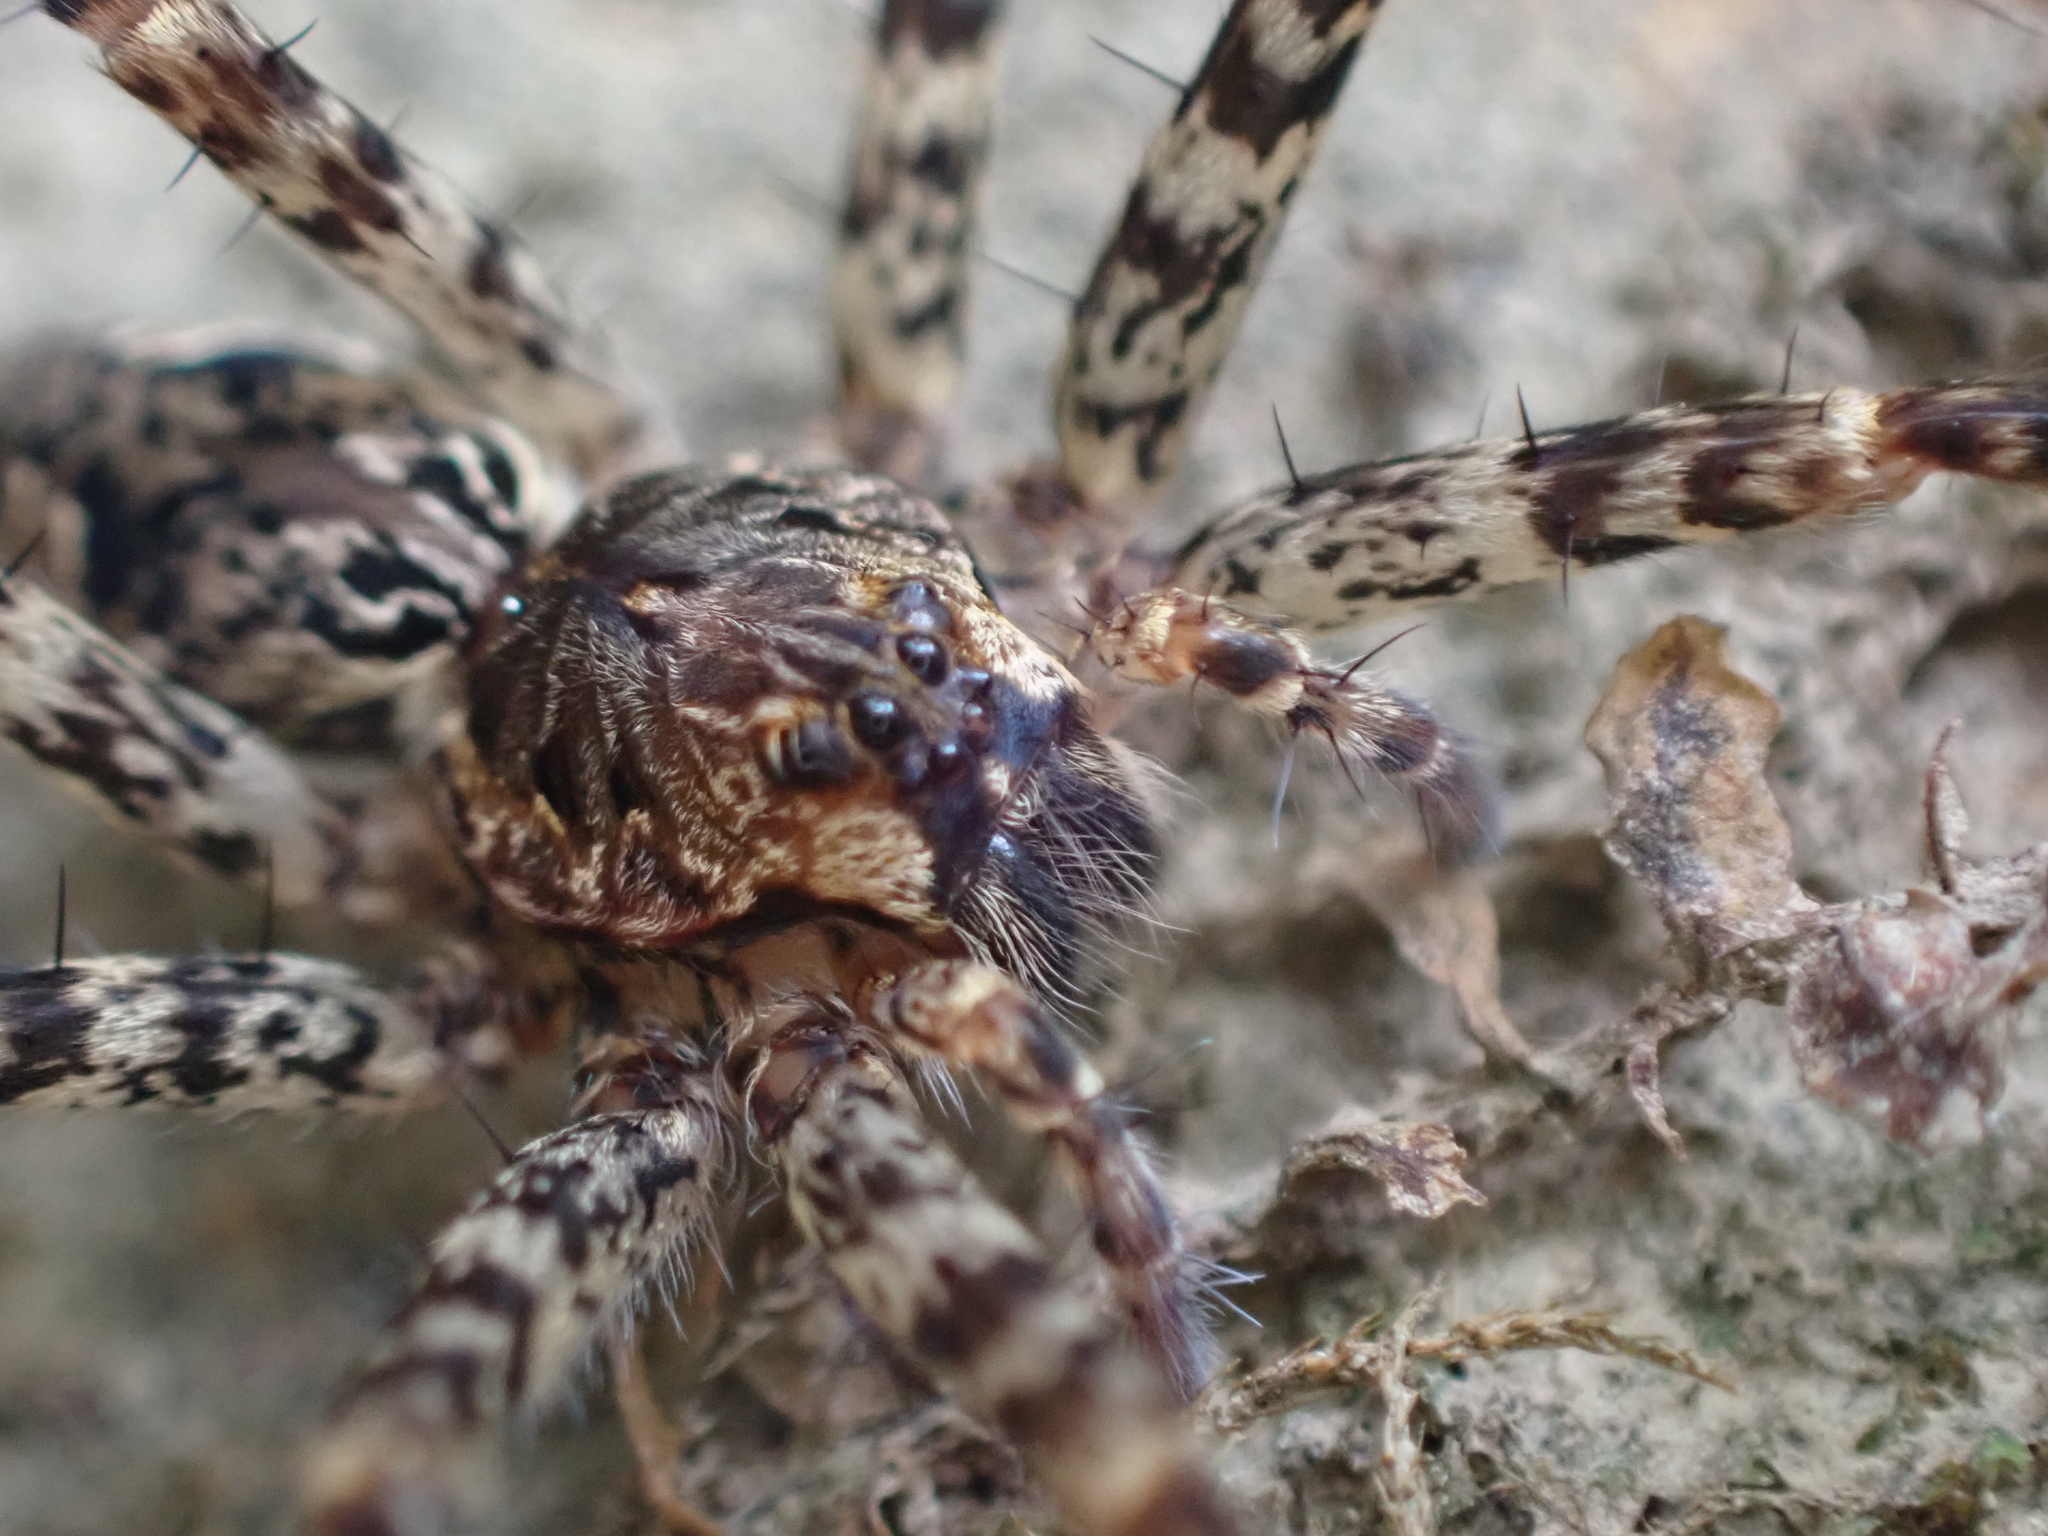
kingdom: Animalia
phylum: Arthropoda
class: Arachnida
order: Araneae
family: Pisauridae
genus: Dolomedes
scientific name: Dolomedes tenebrosus
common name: Dark fishing spider
